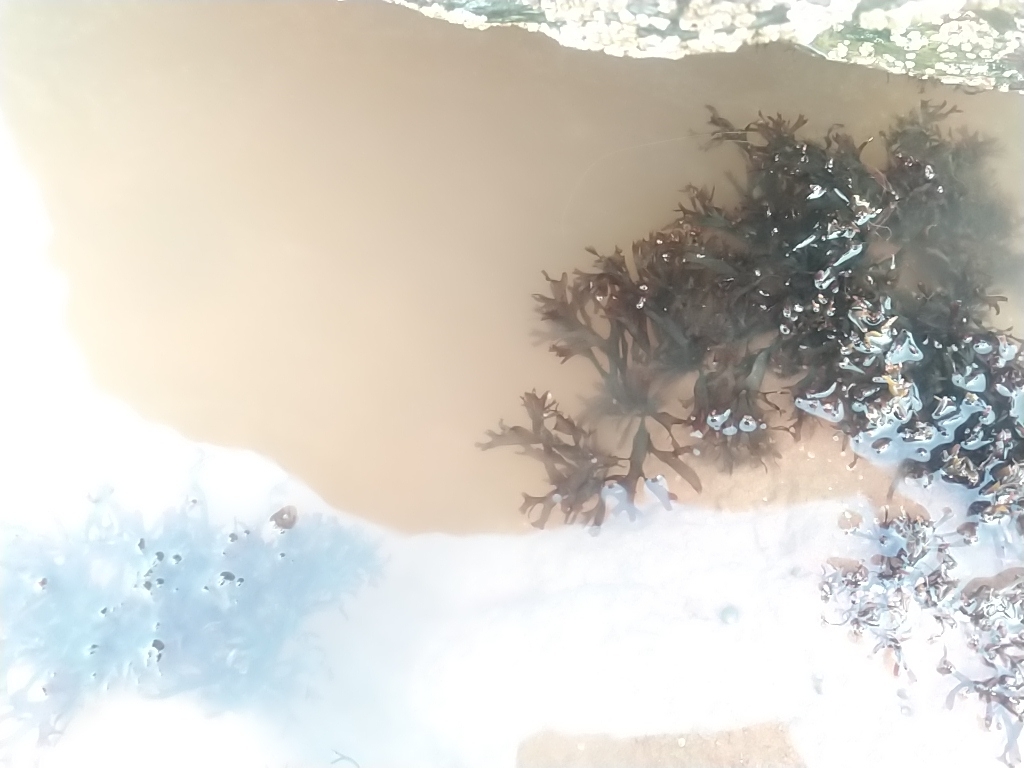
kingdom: Plantae
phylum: Rhodophyta
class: Florideophyceae
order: Gigartinales
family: Gigartinaceae
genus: Chondrus
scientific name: Chondrus crispus
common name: Carrageen
